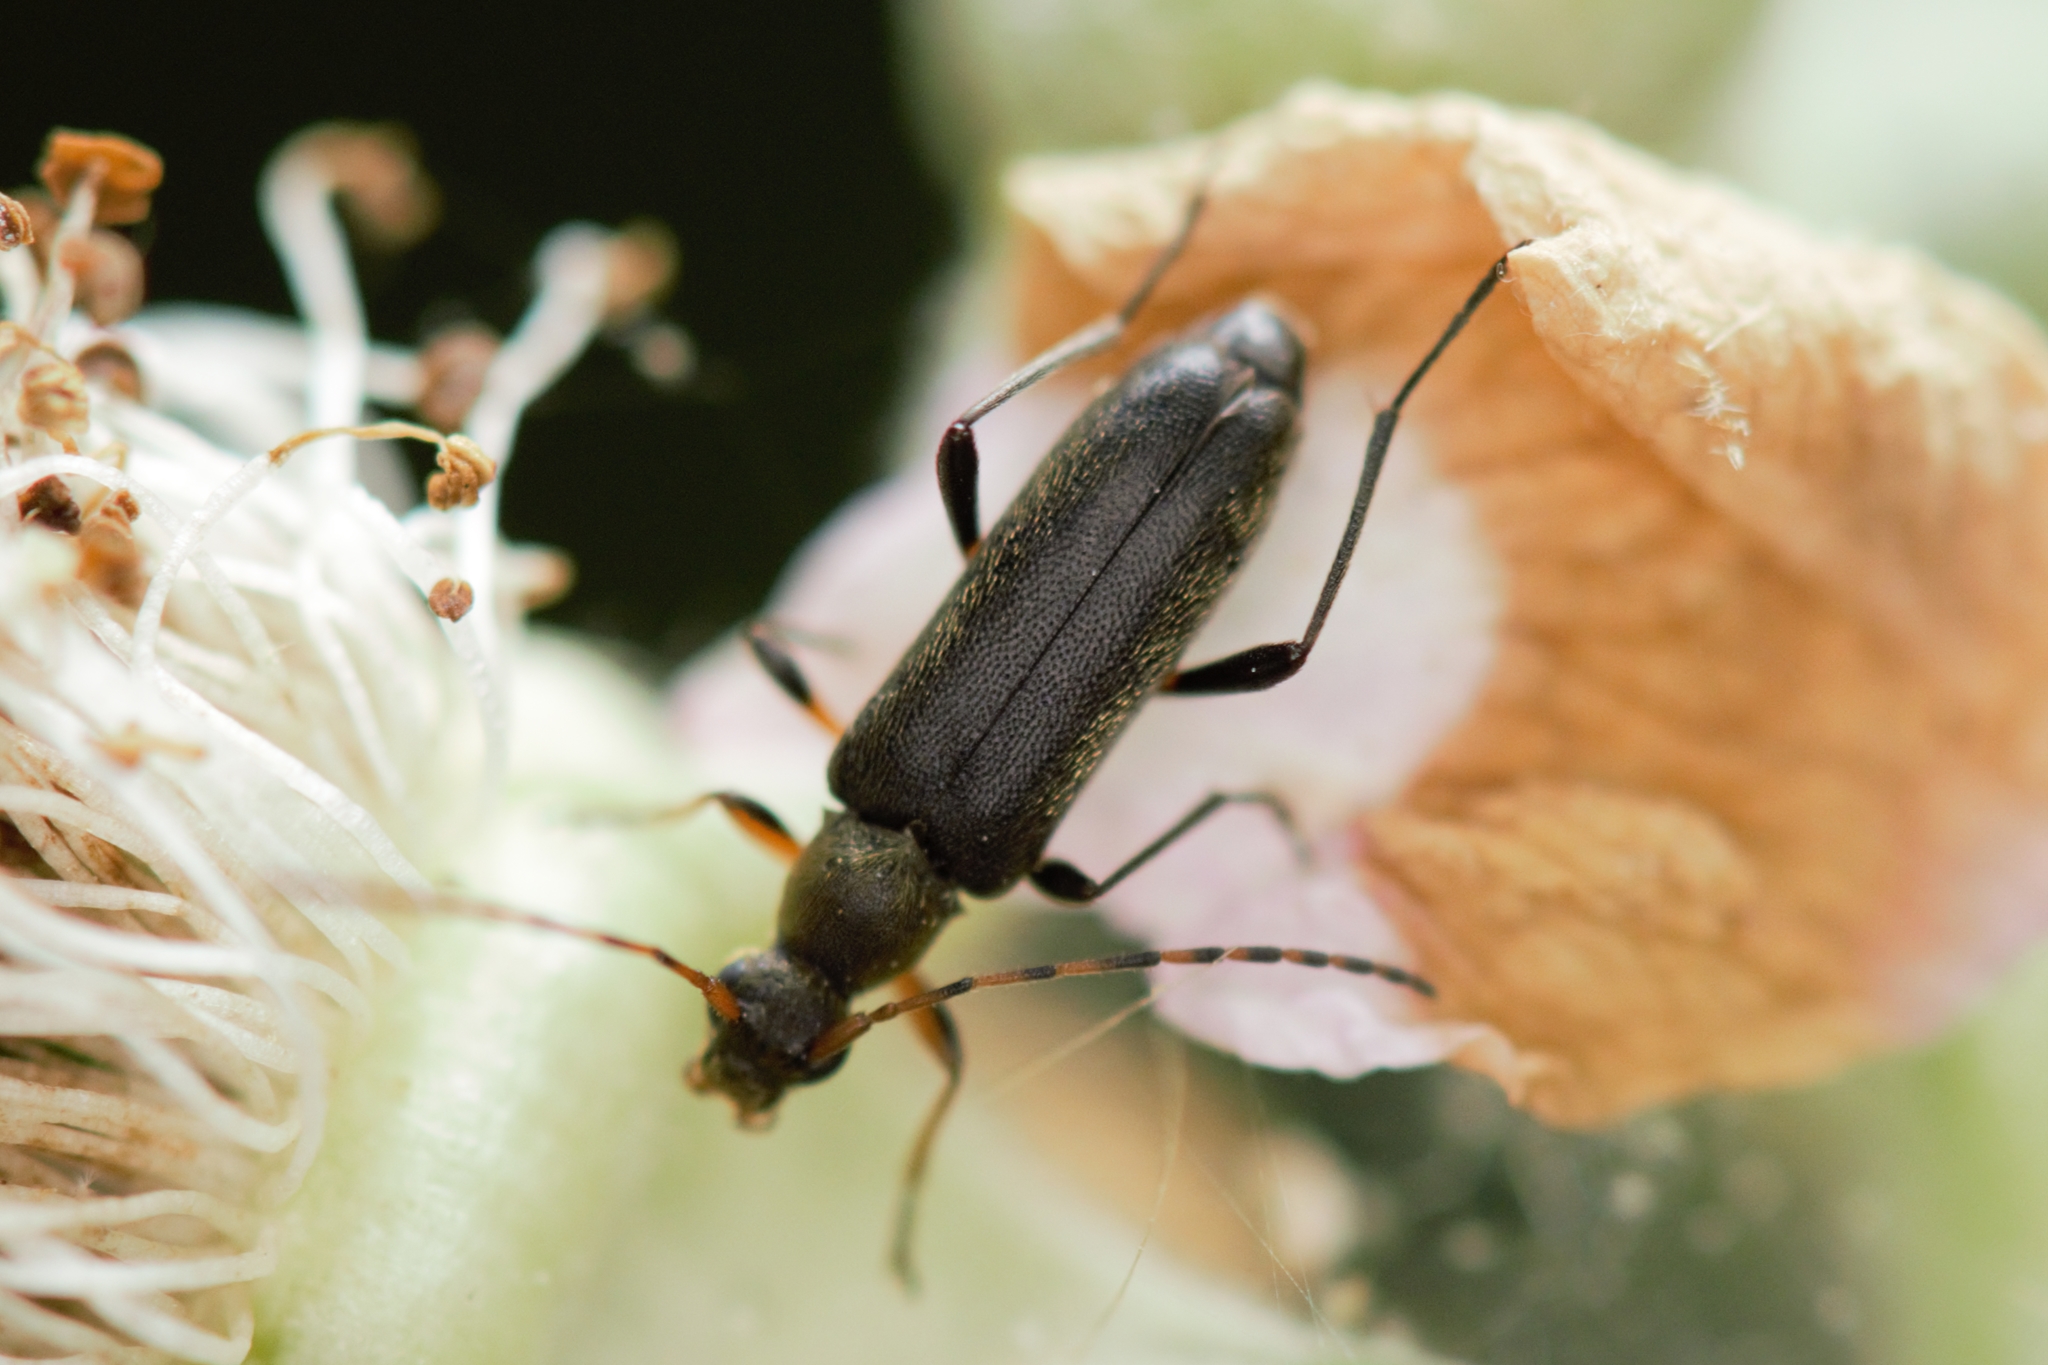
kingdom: Animalia
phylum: Arthropoda
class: Insecta
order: Coleoptera
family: Cerambycidae
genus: Grammoptera
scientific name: Grammoptera ruficornis
